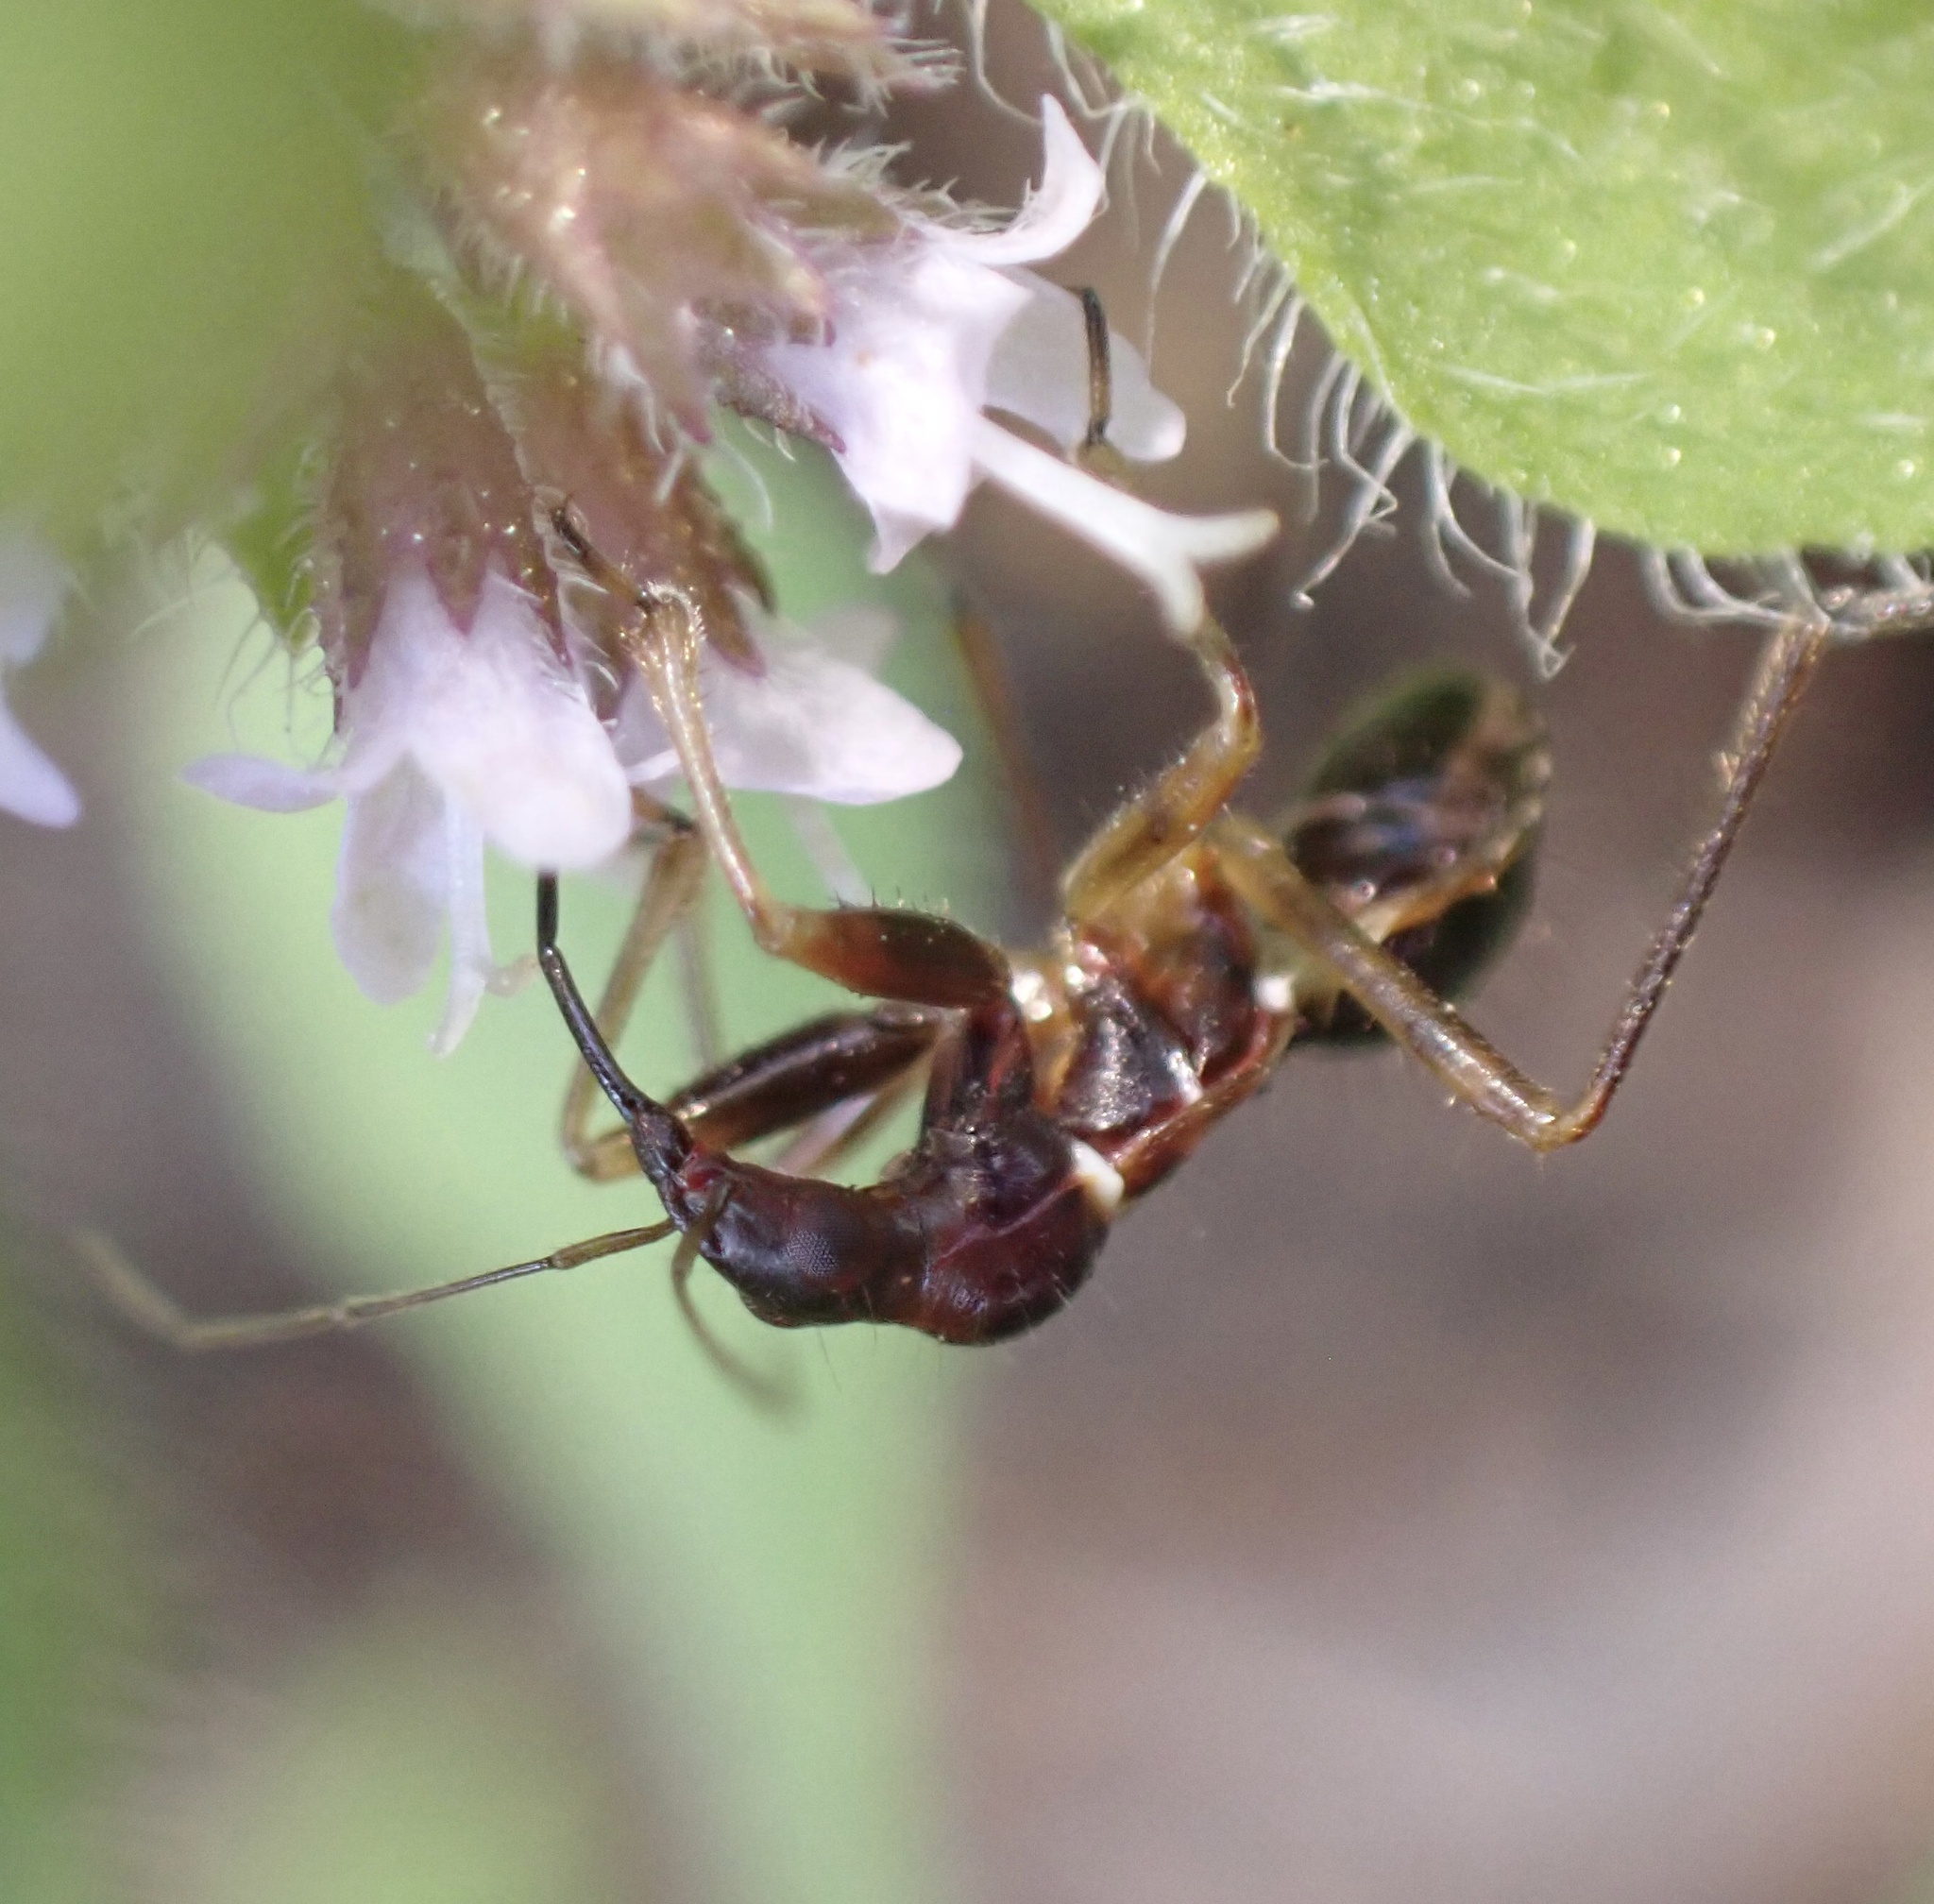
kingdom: Animalia
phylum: Arthropoda
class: Insecta
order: Hemiptera
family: Nabidae
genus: Himacerus
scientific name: Himacerus mirmicoides
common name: Ant damsel bug
